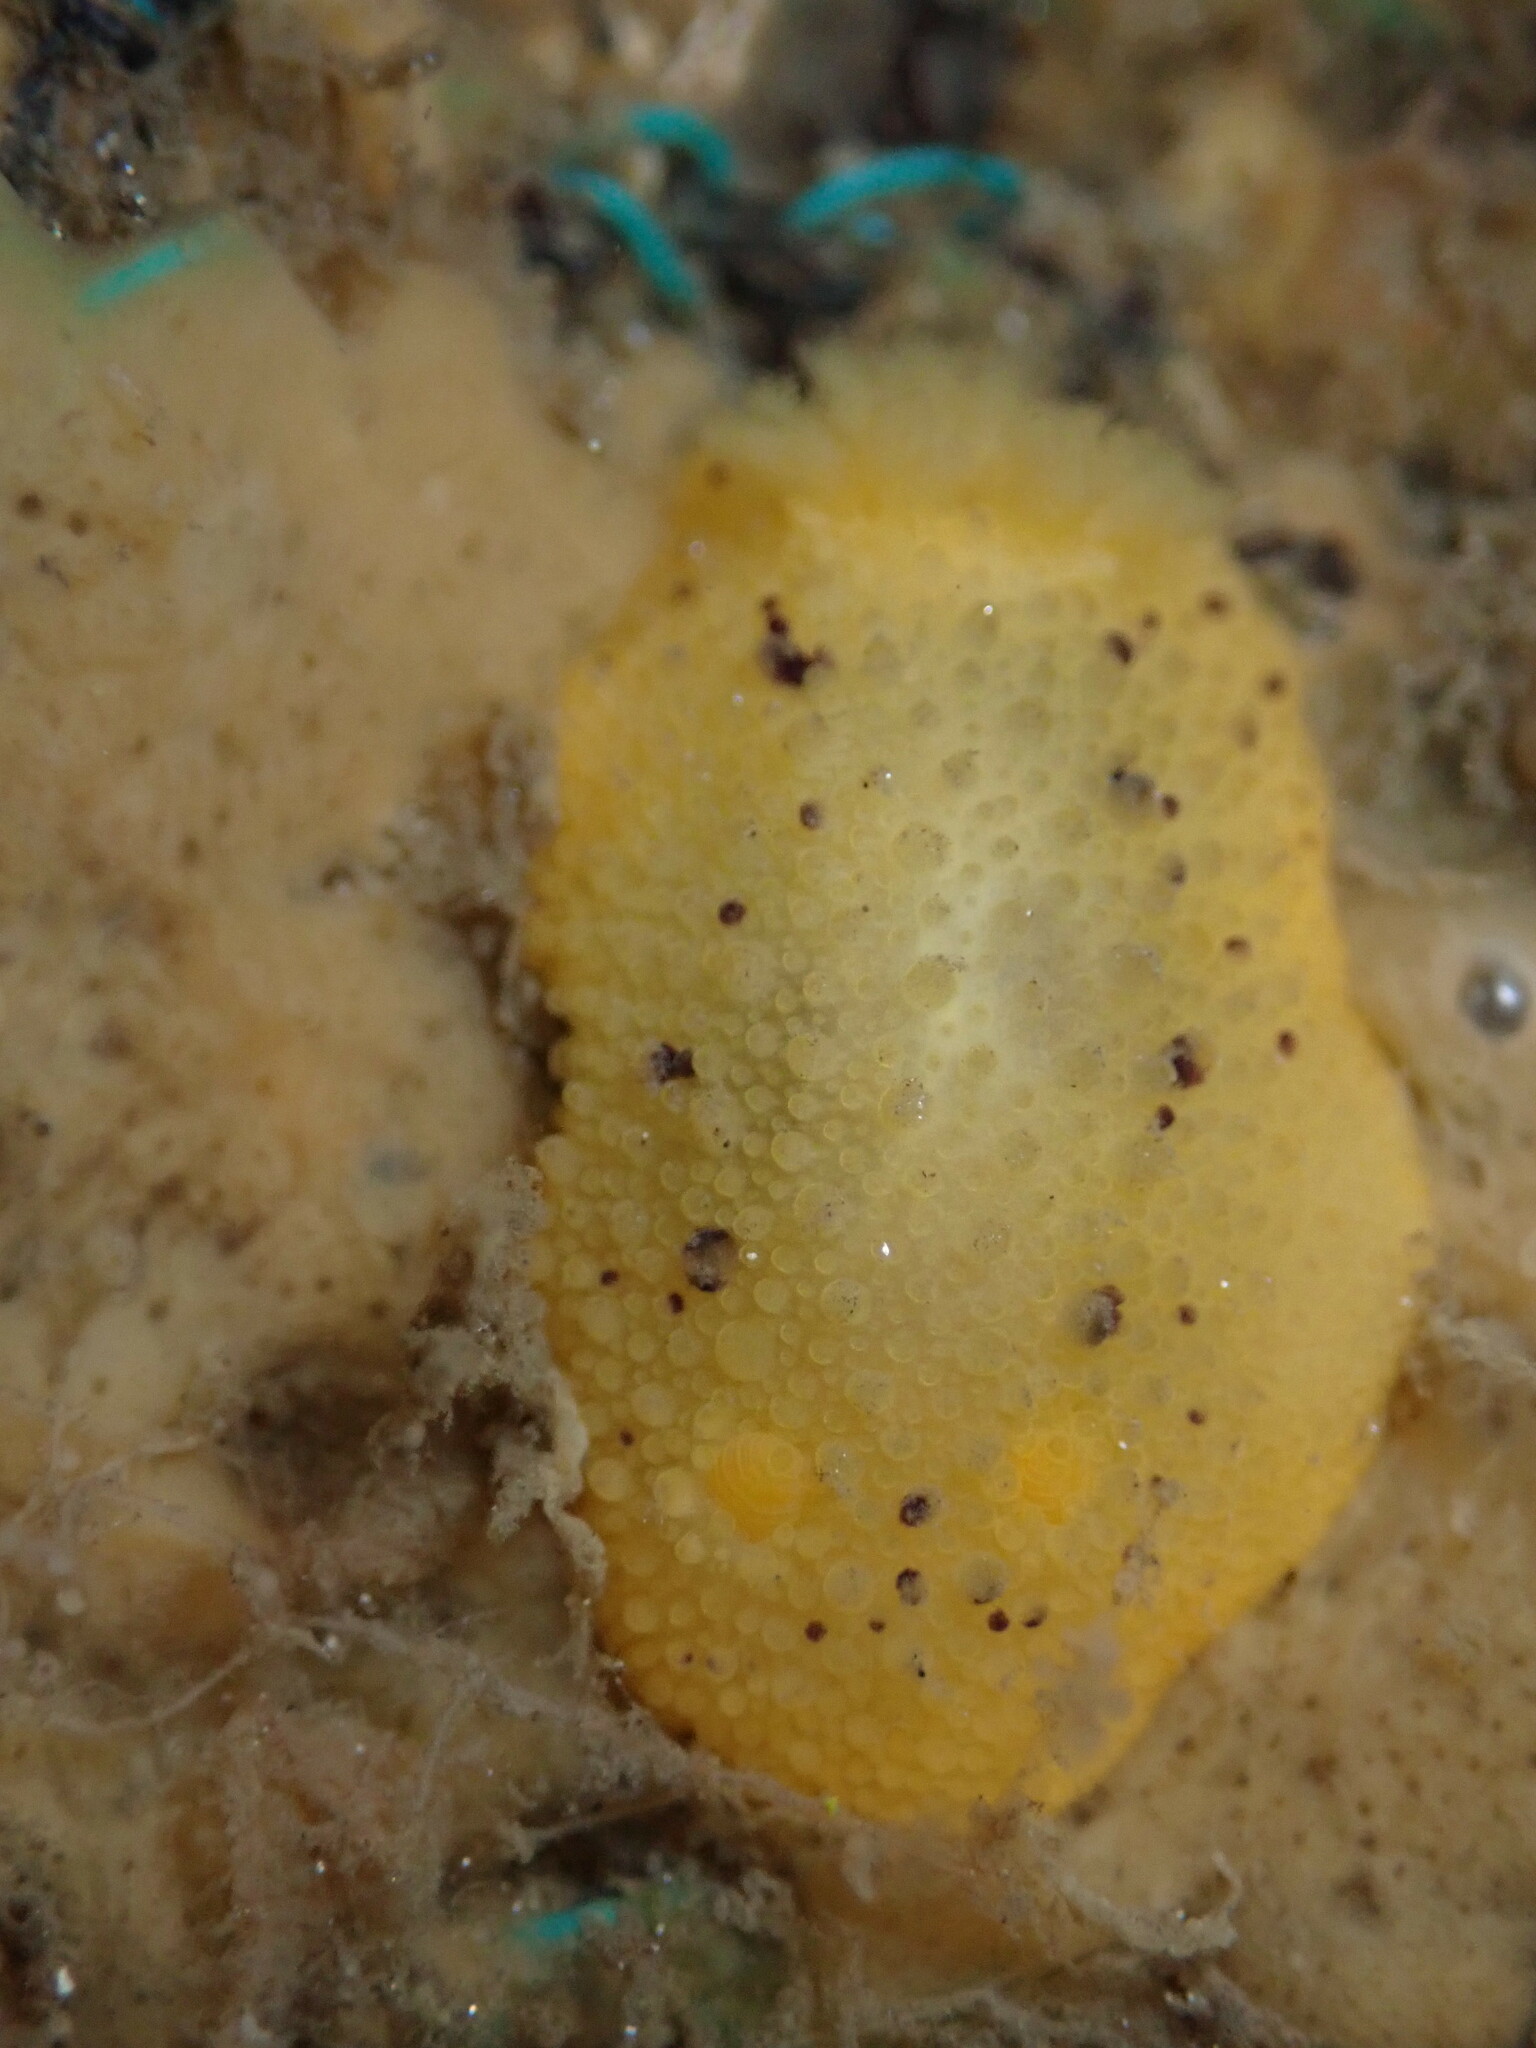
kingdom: Animalia
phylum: Mollusca
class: Gastropoda
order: Nudibranchia
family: Dorididae
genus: Doris
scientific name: Doris montereyensis
